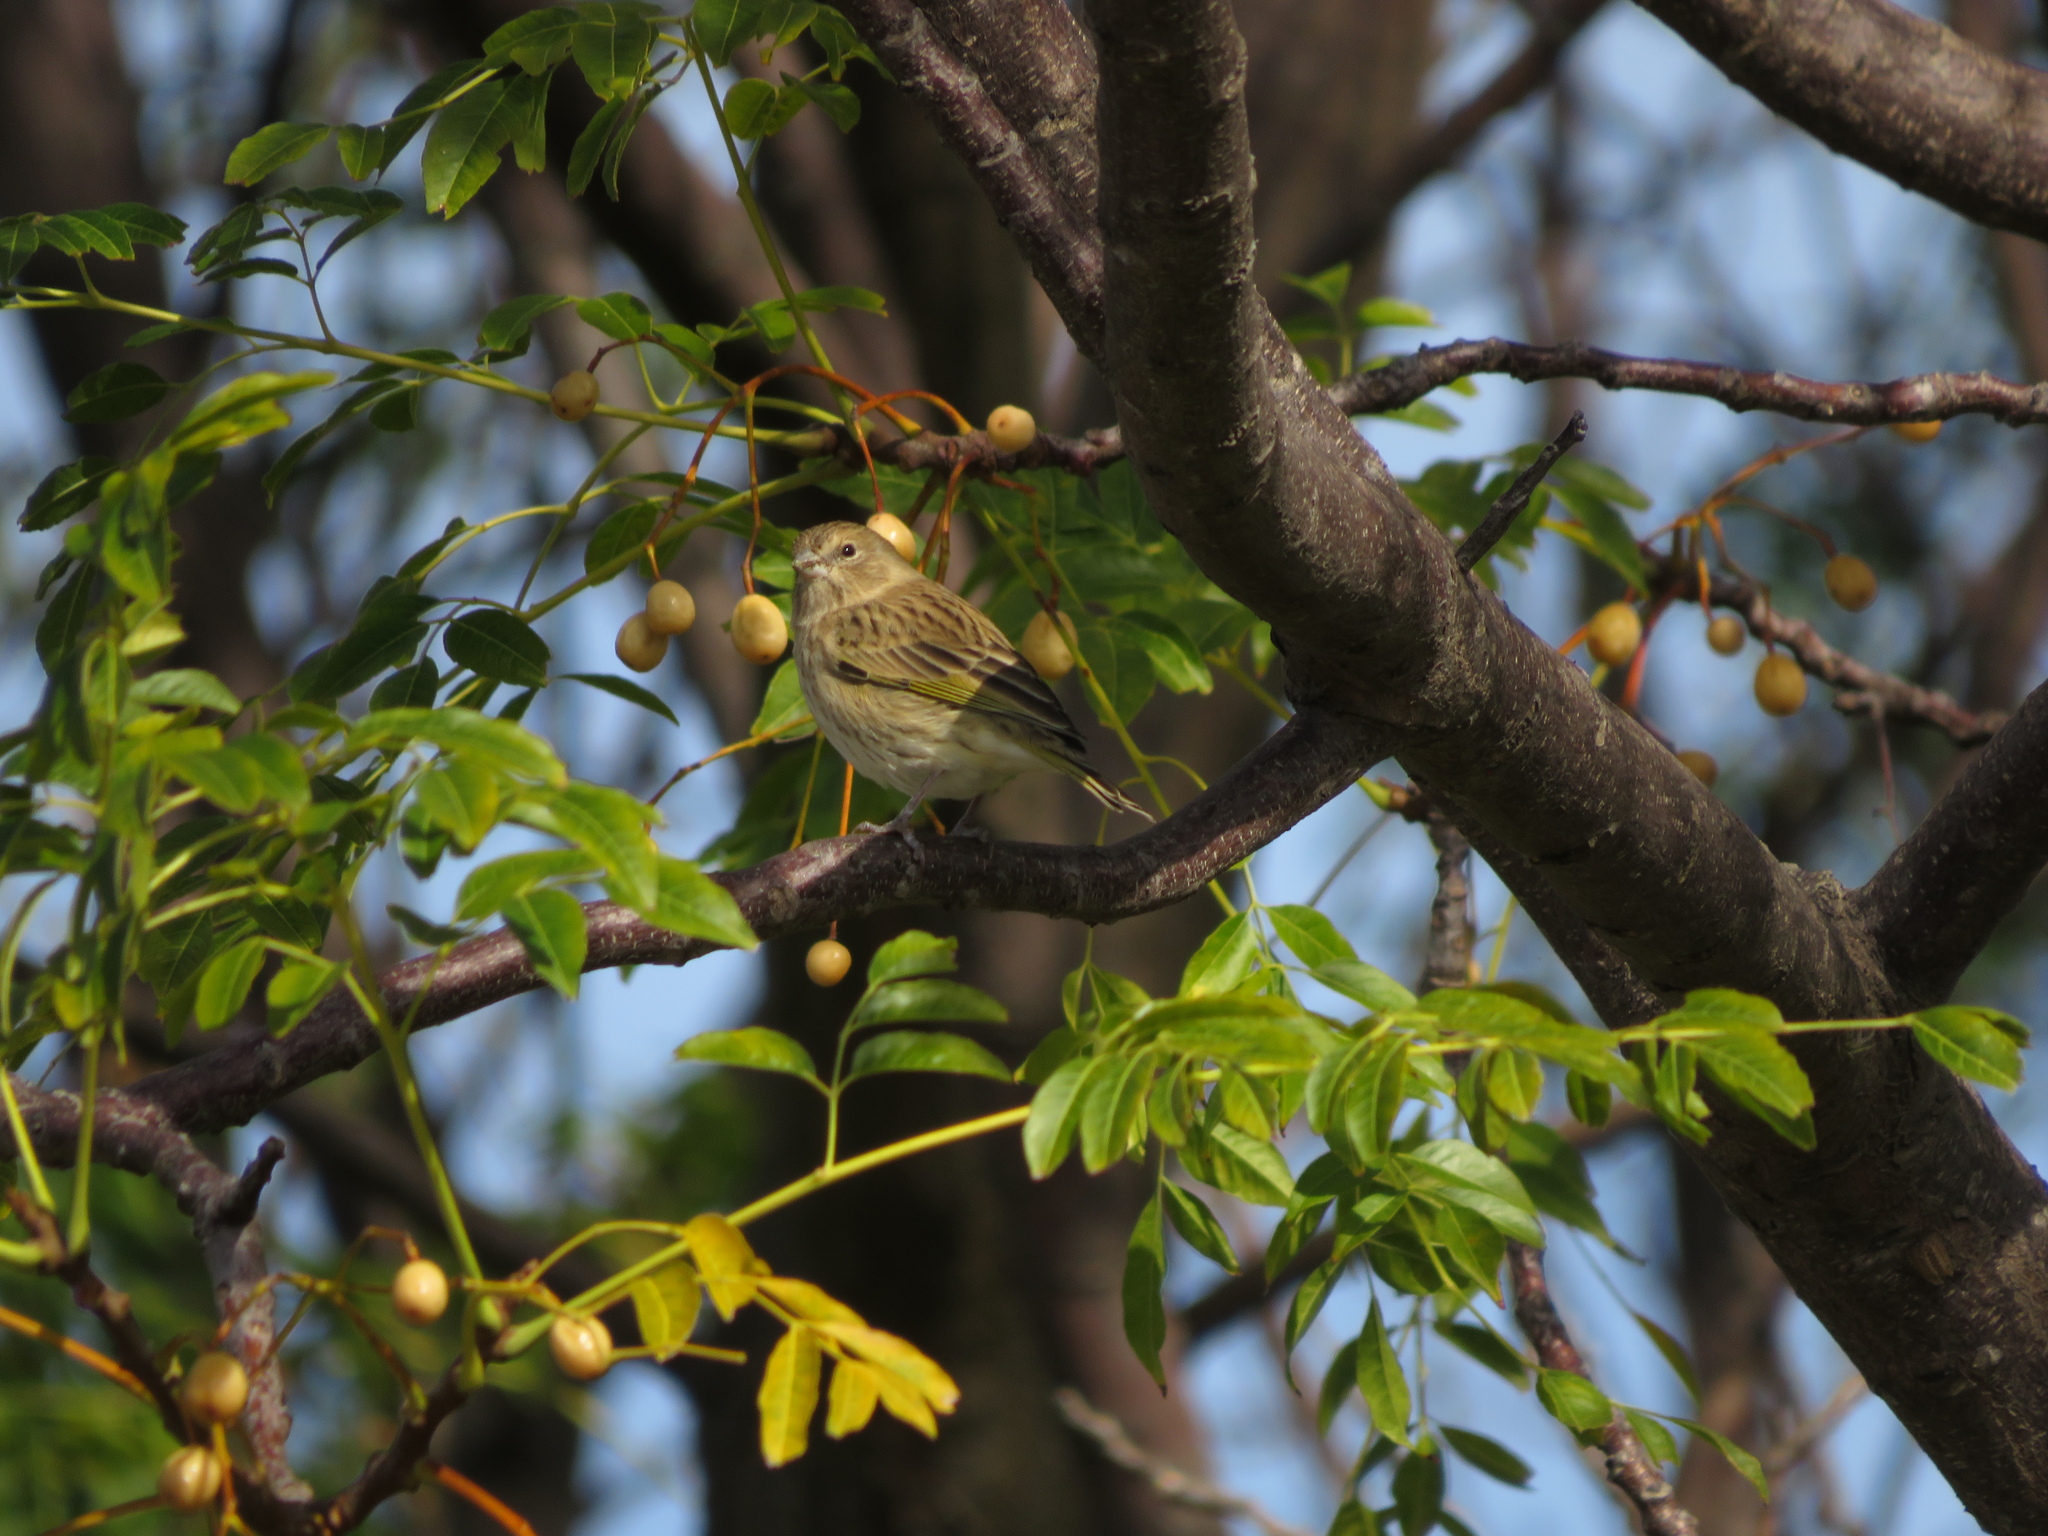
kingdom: Animalia
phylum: Chordata
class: Aves
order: Passeriformes
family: Thraupidae
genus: Sicalis
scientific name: Sicalis flaveola
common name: Saffron finch
